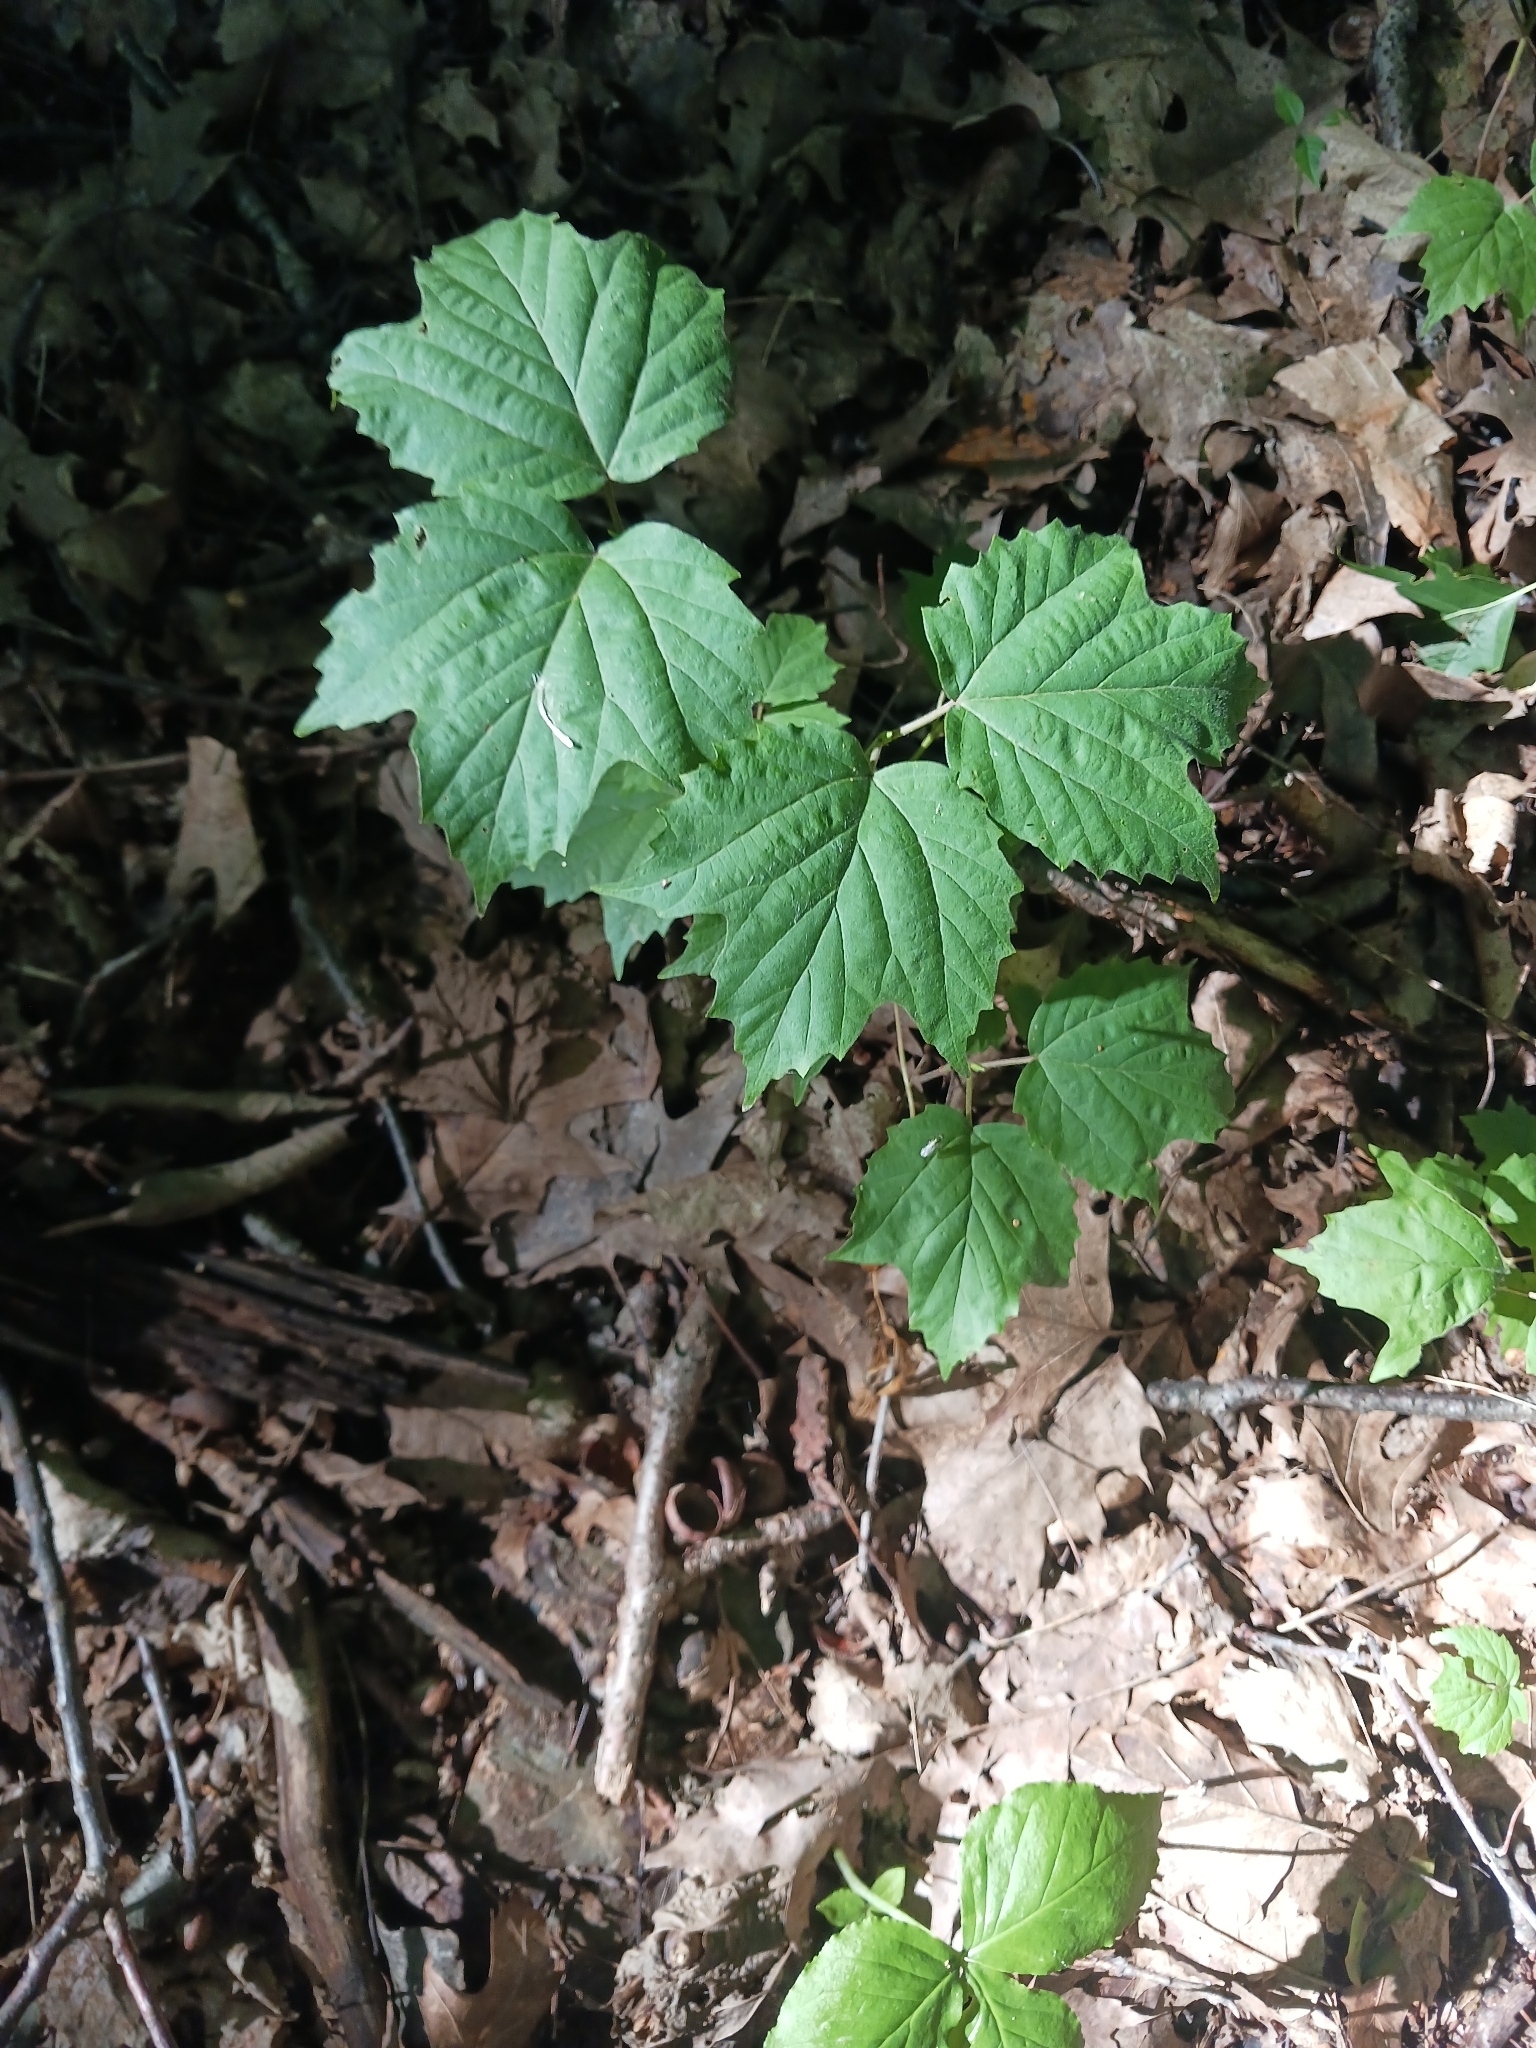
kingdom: Plantae
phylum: Tracheophyta
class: Magnoliopsida
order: Dipsacales
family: Viburnaceae
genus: Viburnum
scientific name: Viburnum acerifolium
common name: Dockmackie
